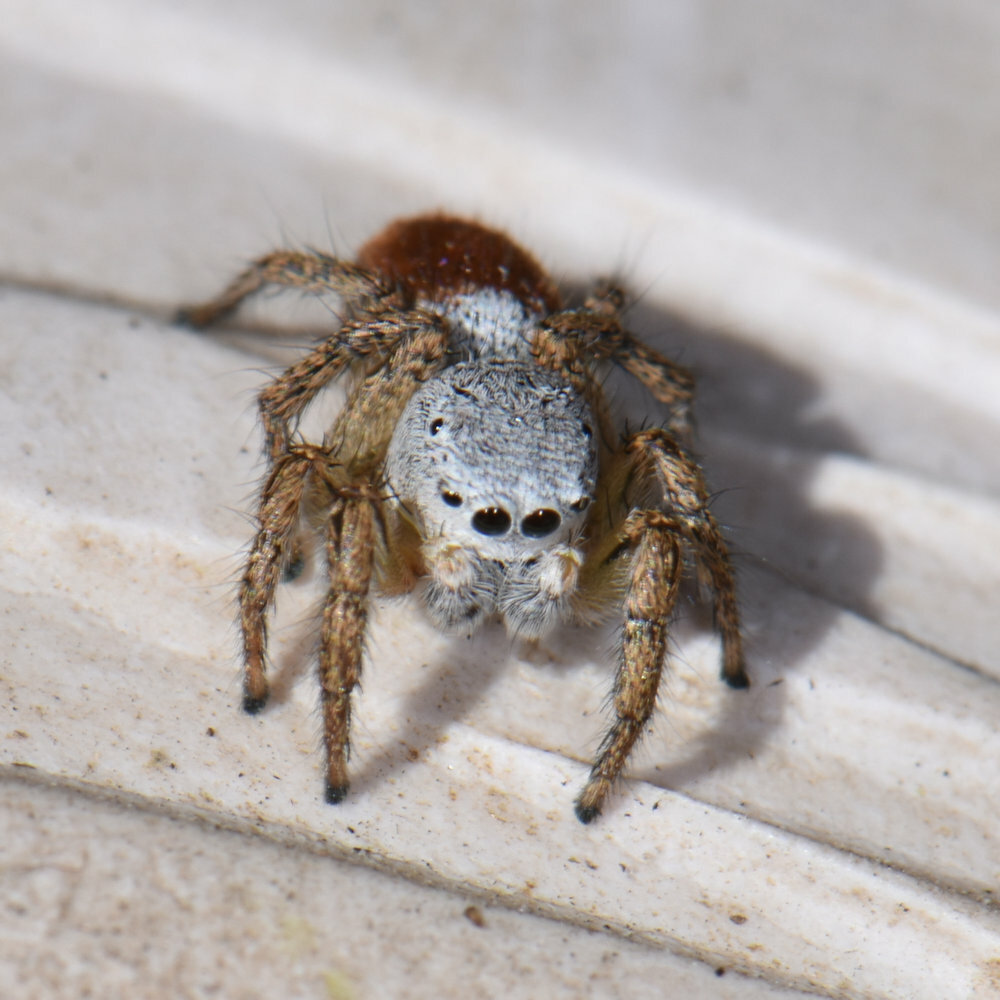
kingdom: Animalia
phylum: Arthropoda
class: Arachnida
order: Araneae
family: Salticidae
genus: Habronattus
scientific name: Habronattus decorus
